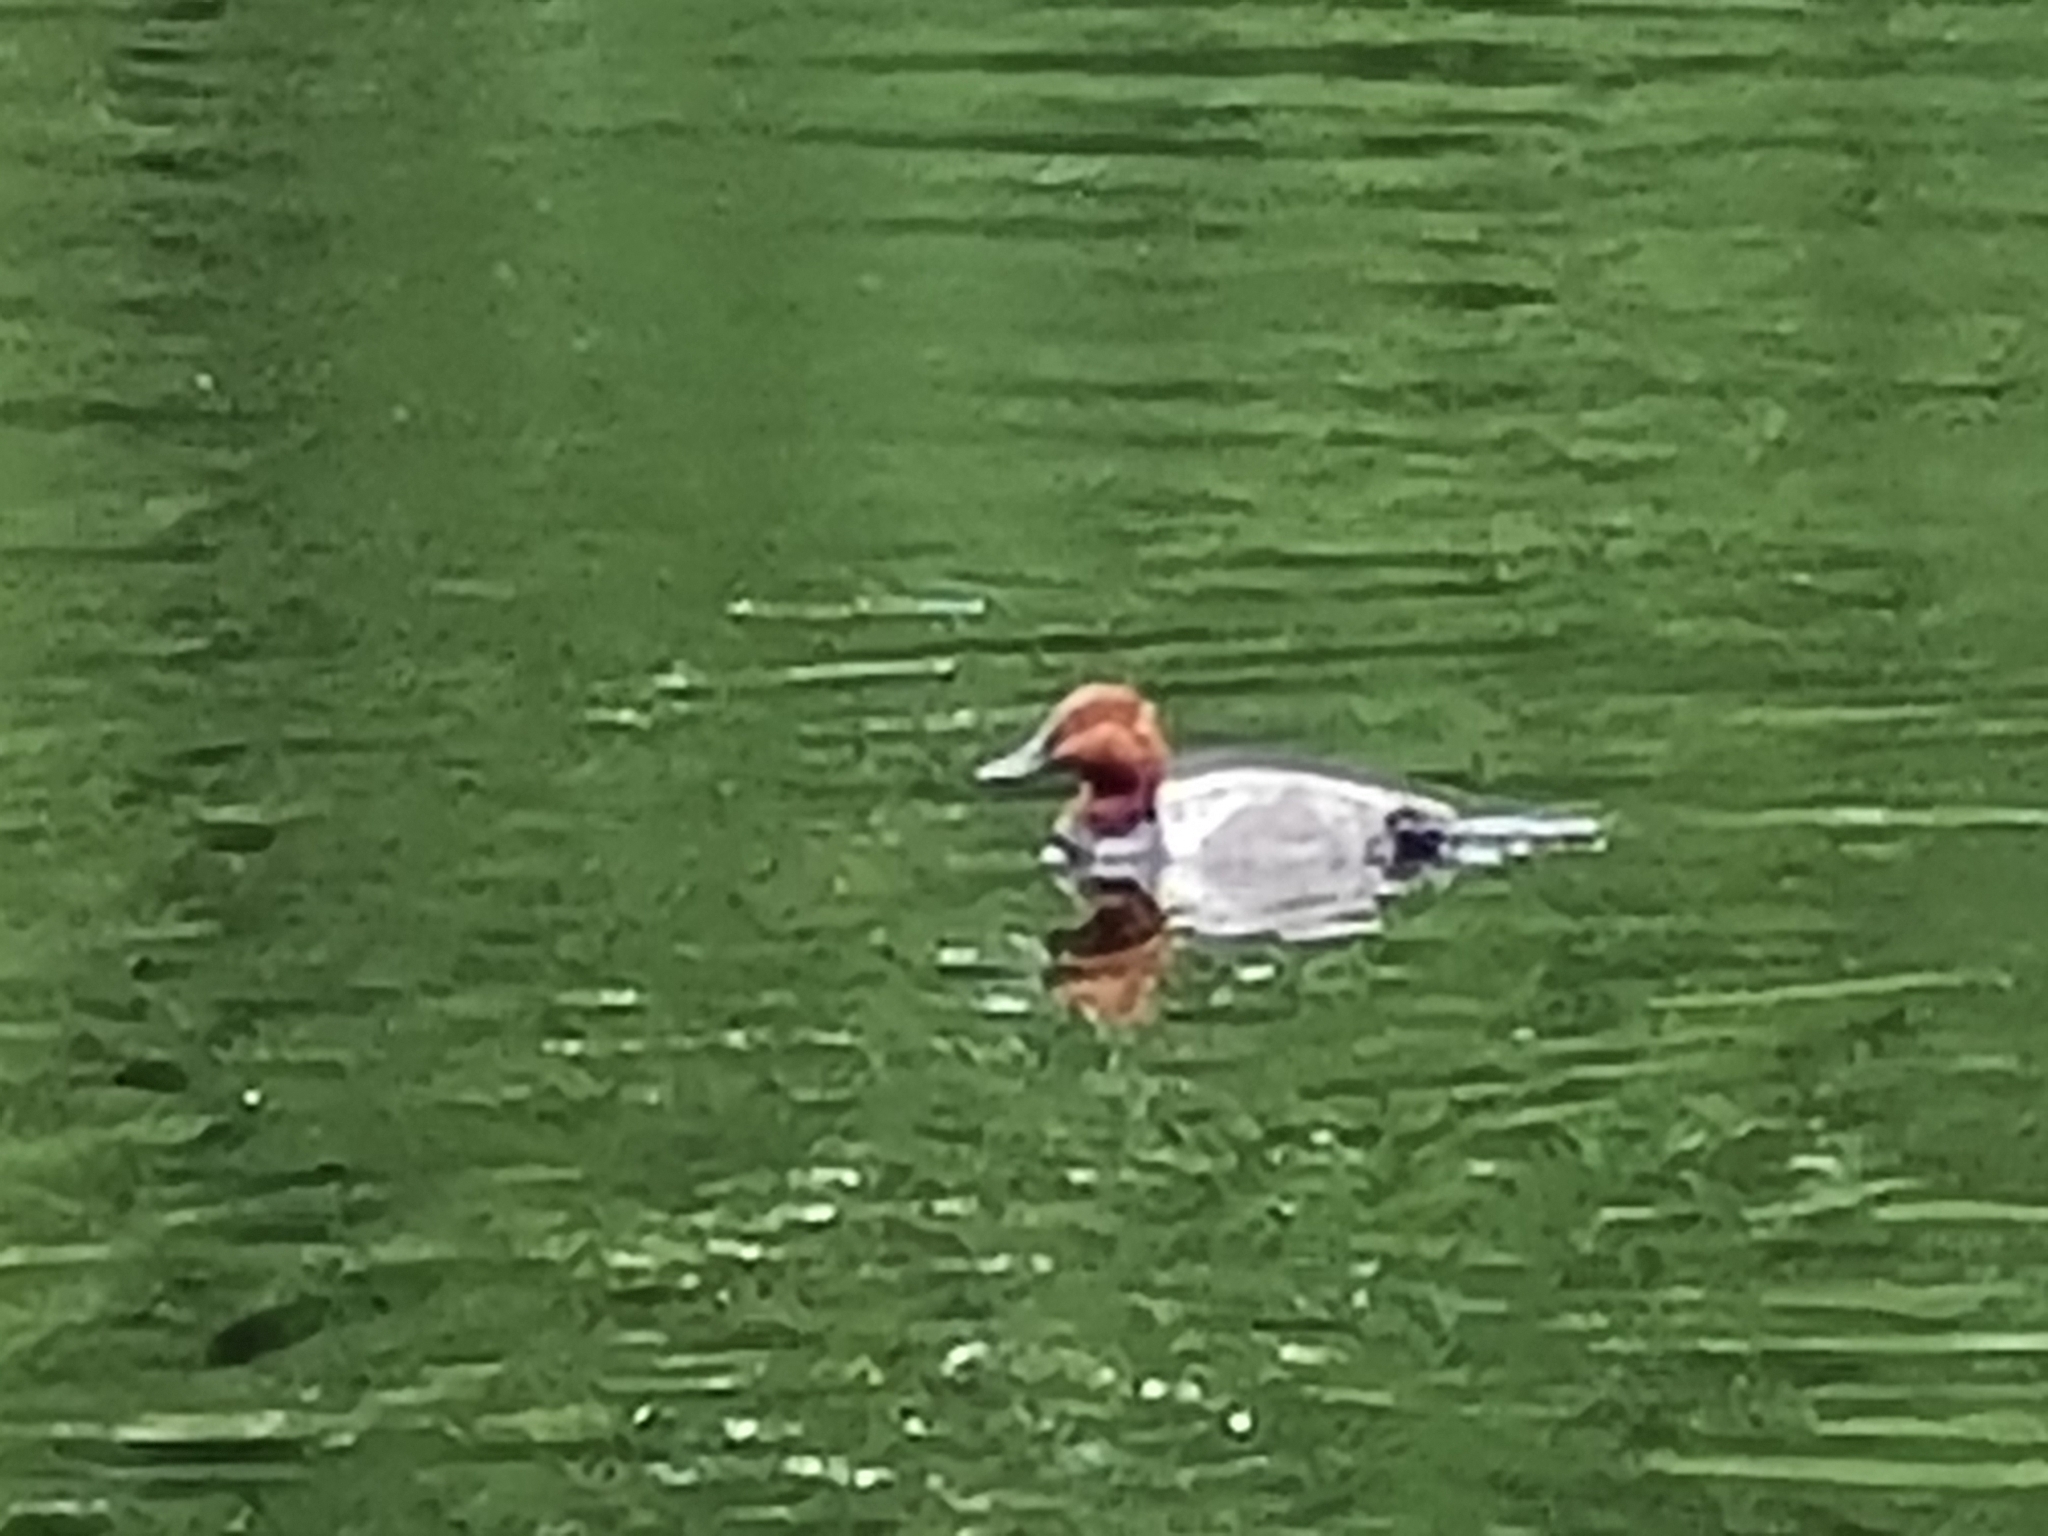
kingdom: Animalia
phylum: Chordata
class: Aves
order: Anseriformes
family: Anatidae
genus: Aythya
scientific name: Aythya ferina
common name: Common pochard
